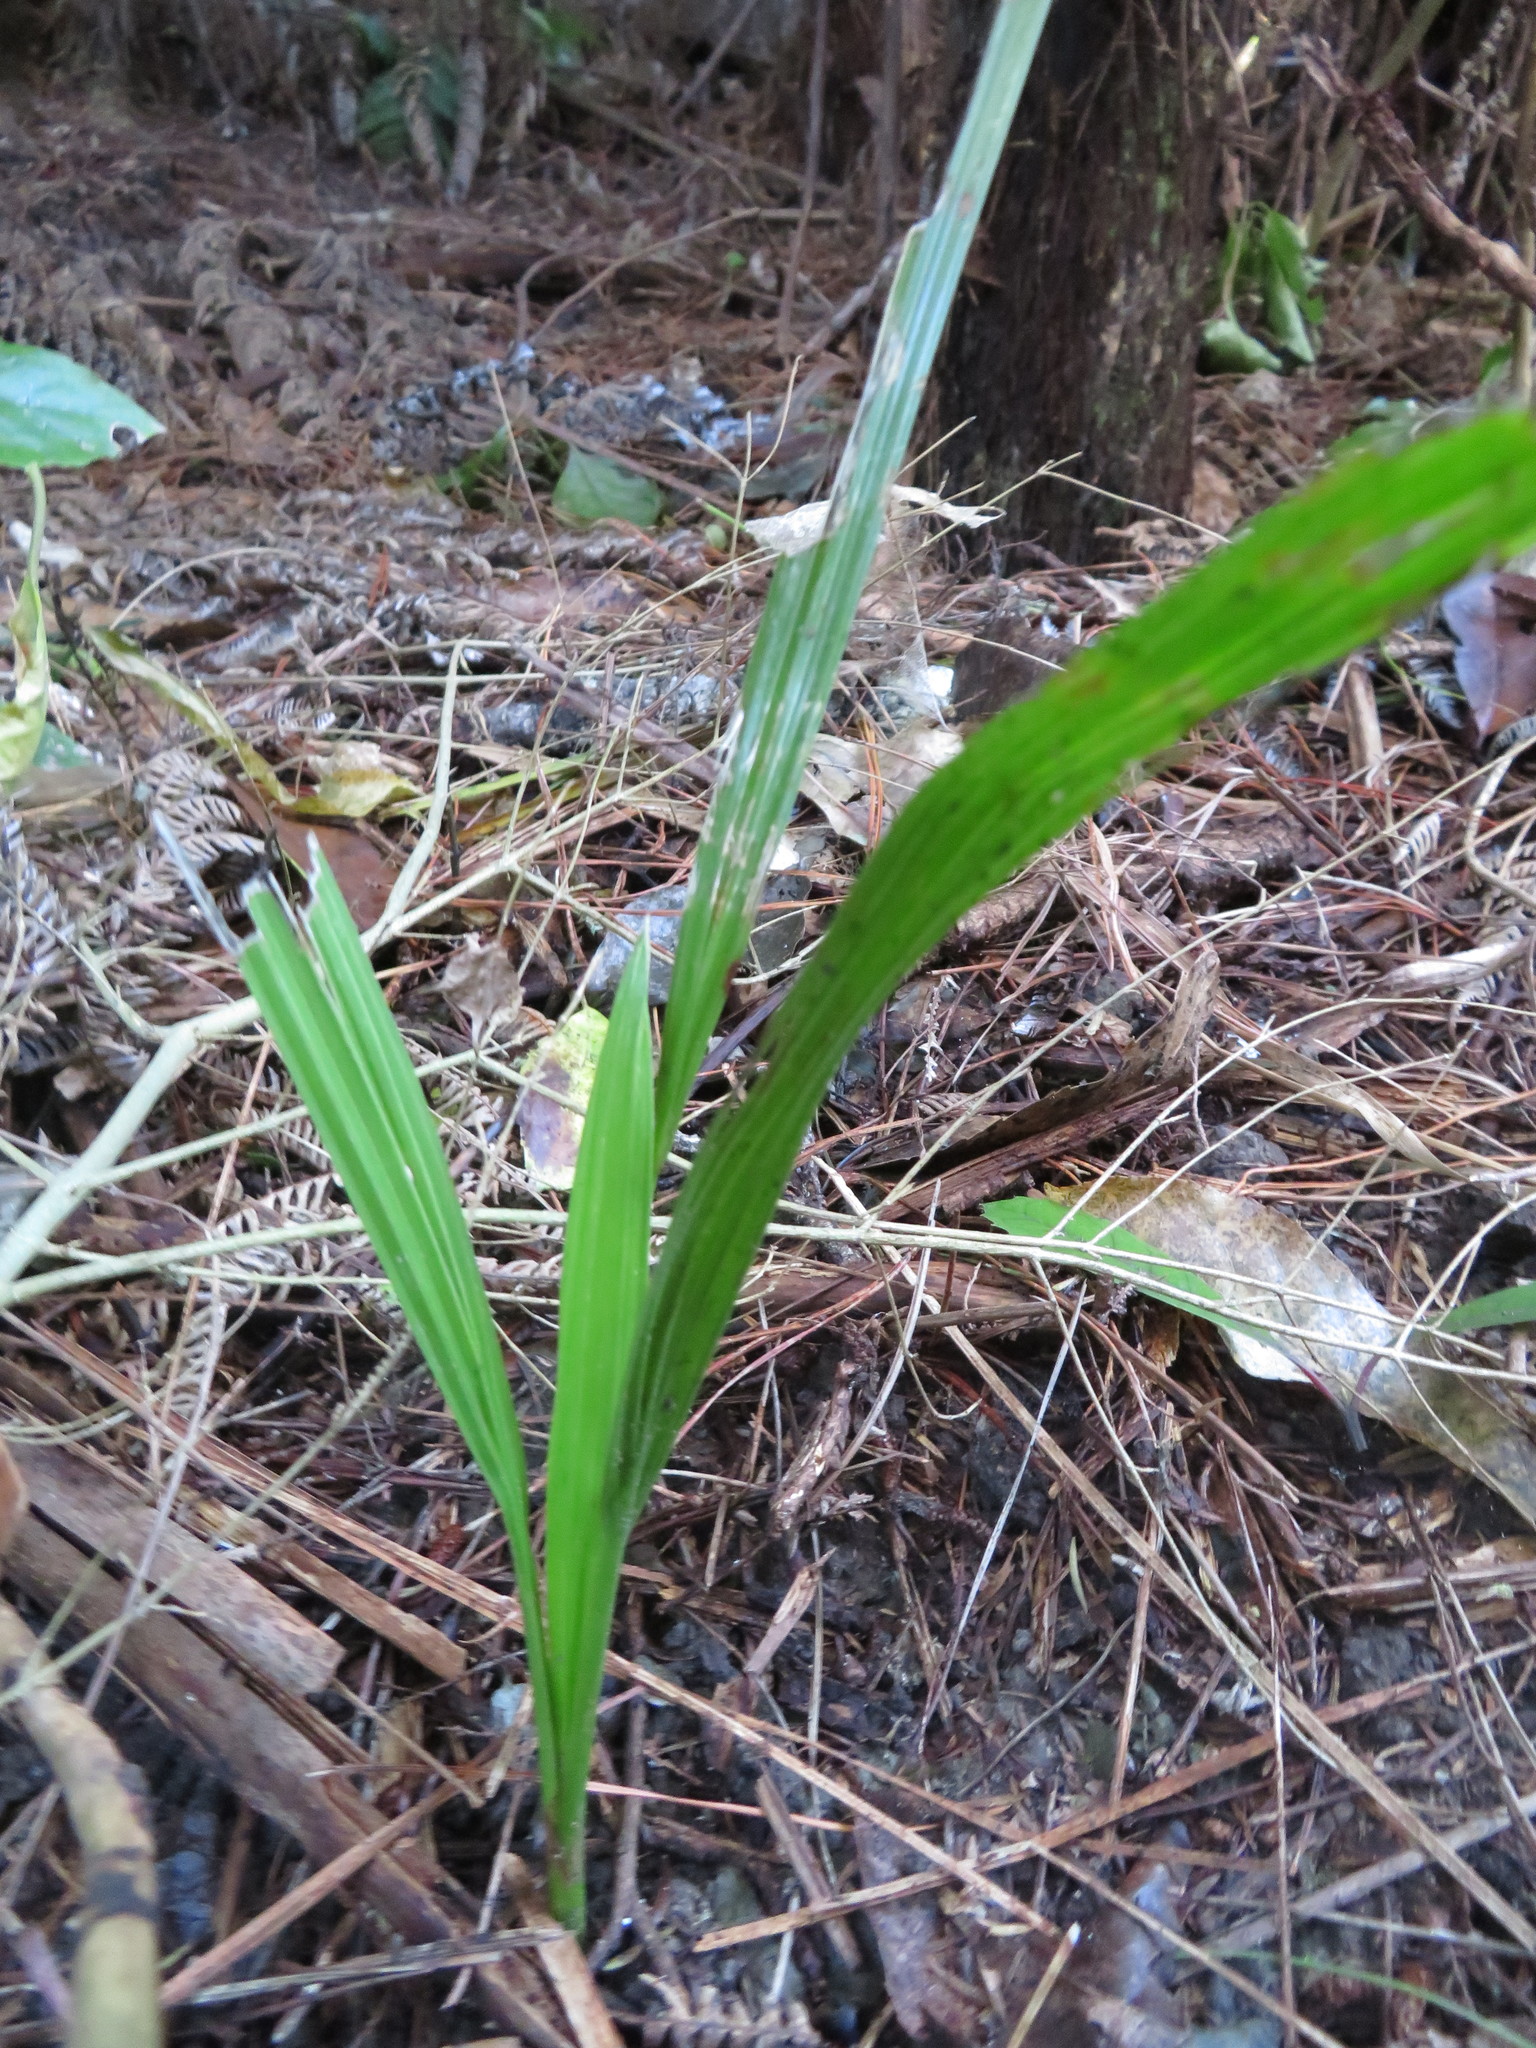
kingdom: Plantae
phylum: Tracheophyta
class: Liliopsida
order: Arecales
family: Arecaceae
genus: Phoenix
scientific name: Phoenix canariensis
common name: Canary island date palm
